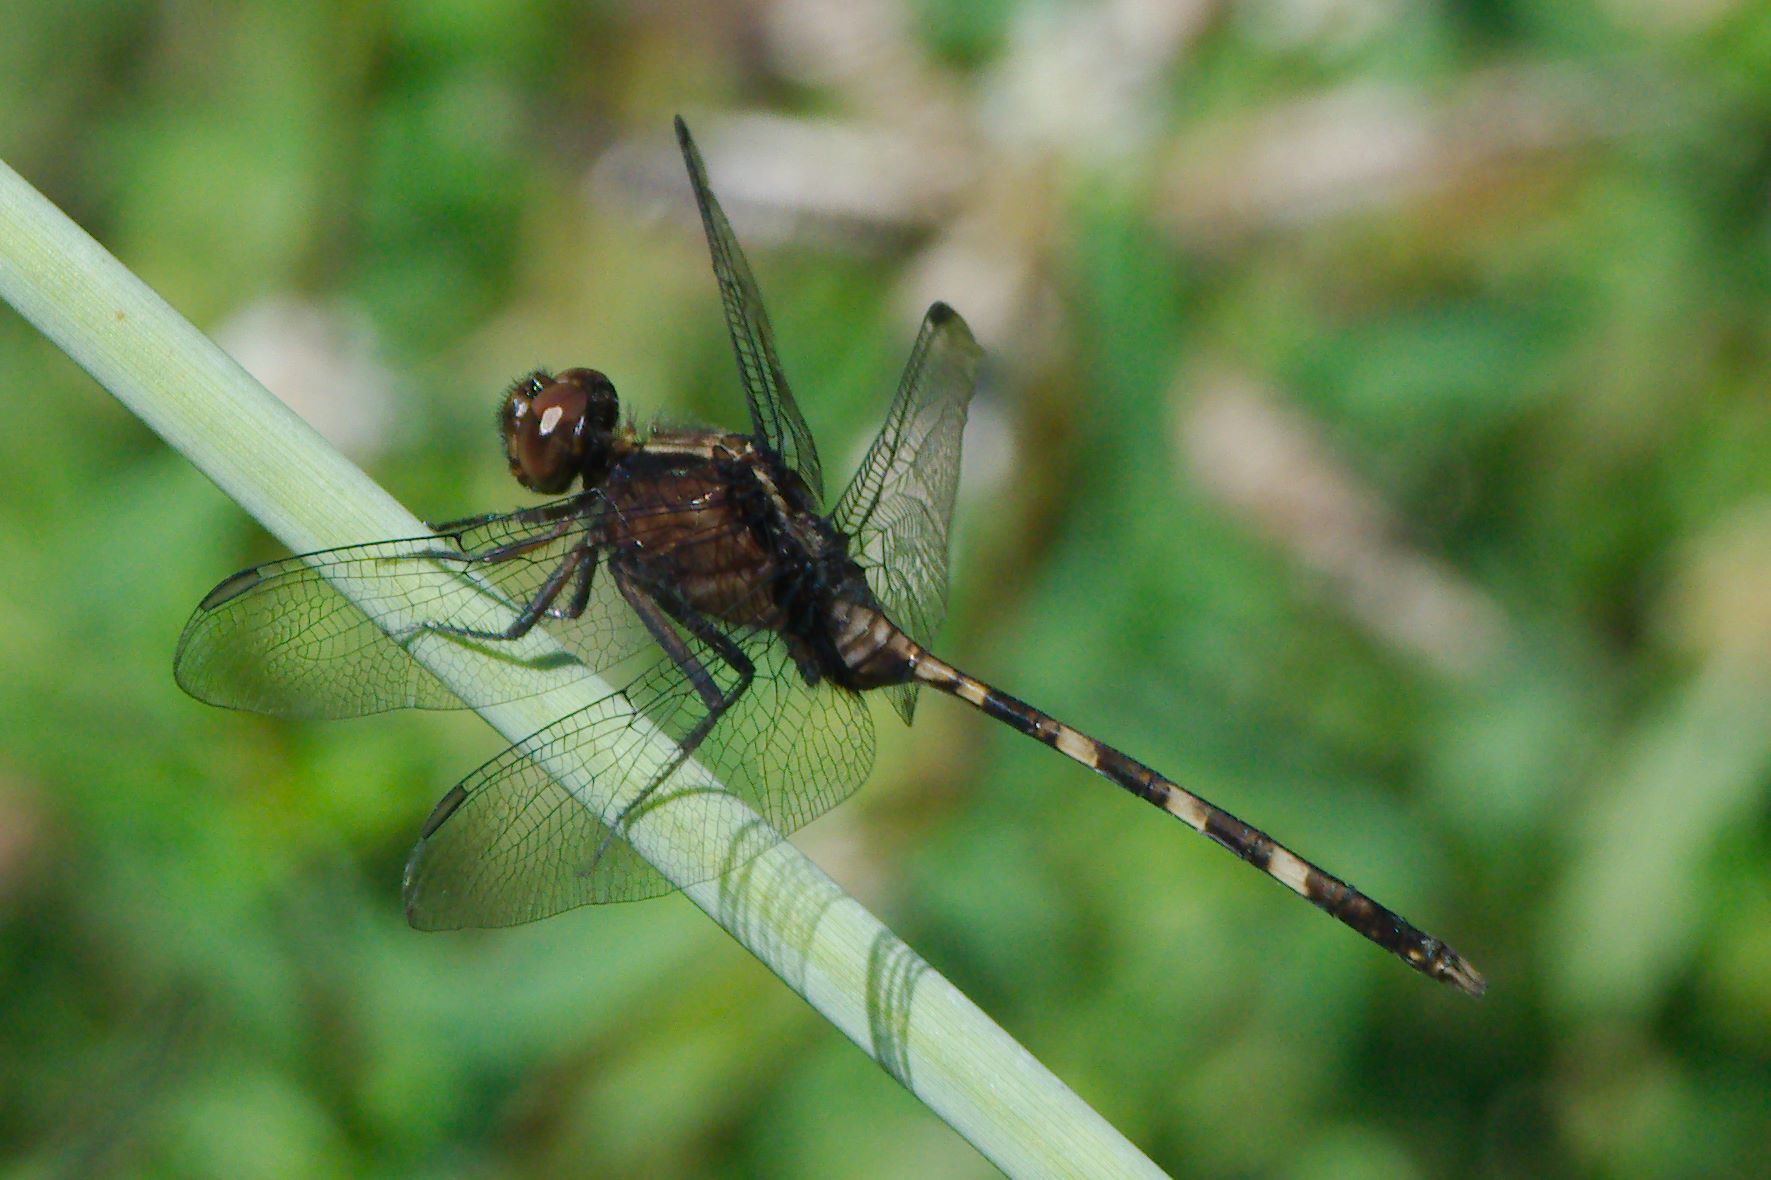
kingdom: Animalia
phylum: Arthropoda
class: Insecta
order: Odonata
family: Libellulidae
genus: Erythemis
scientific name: Erythemis plebeja
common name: Pin-tailed pondhawk
